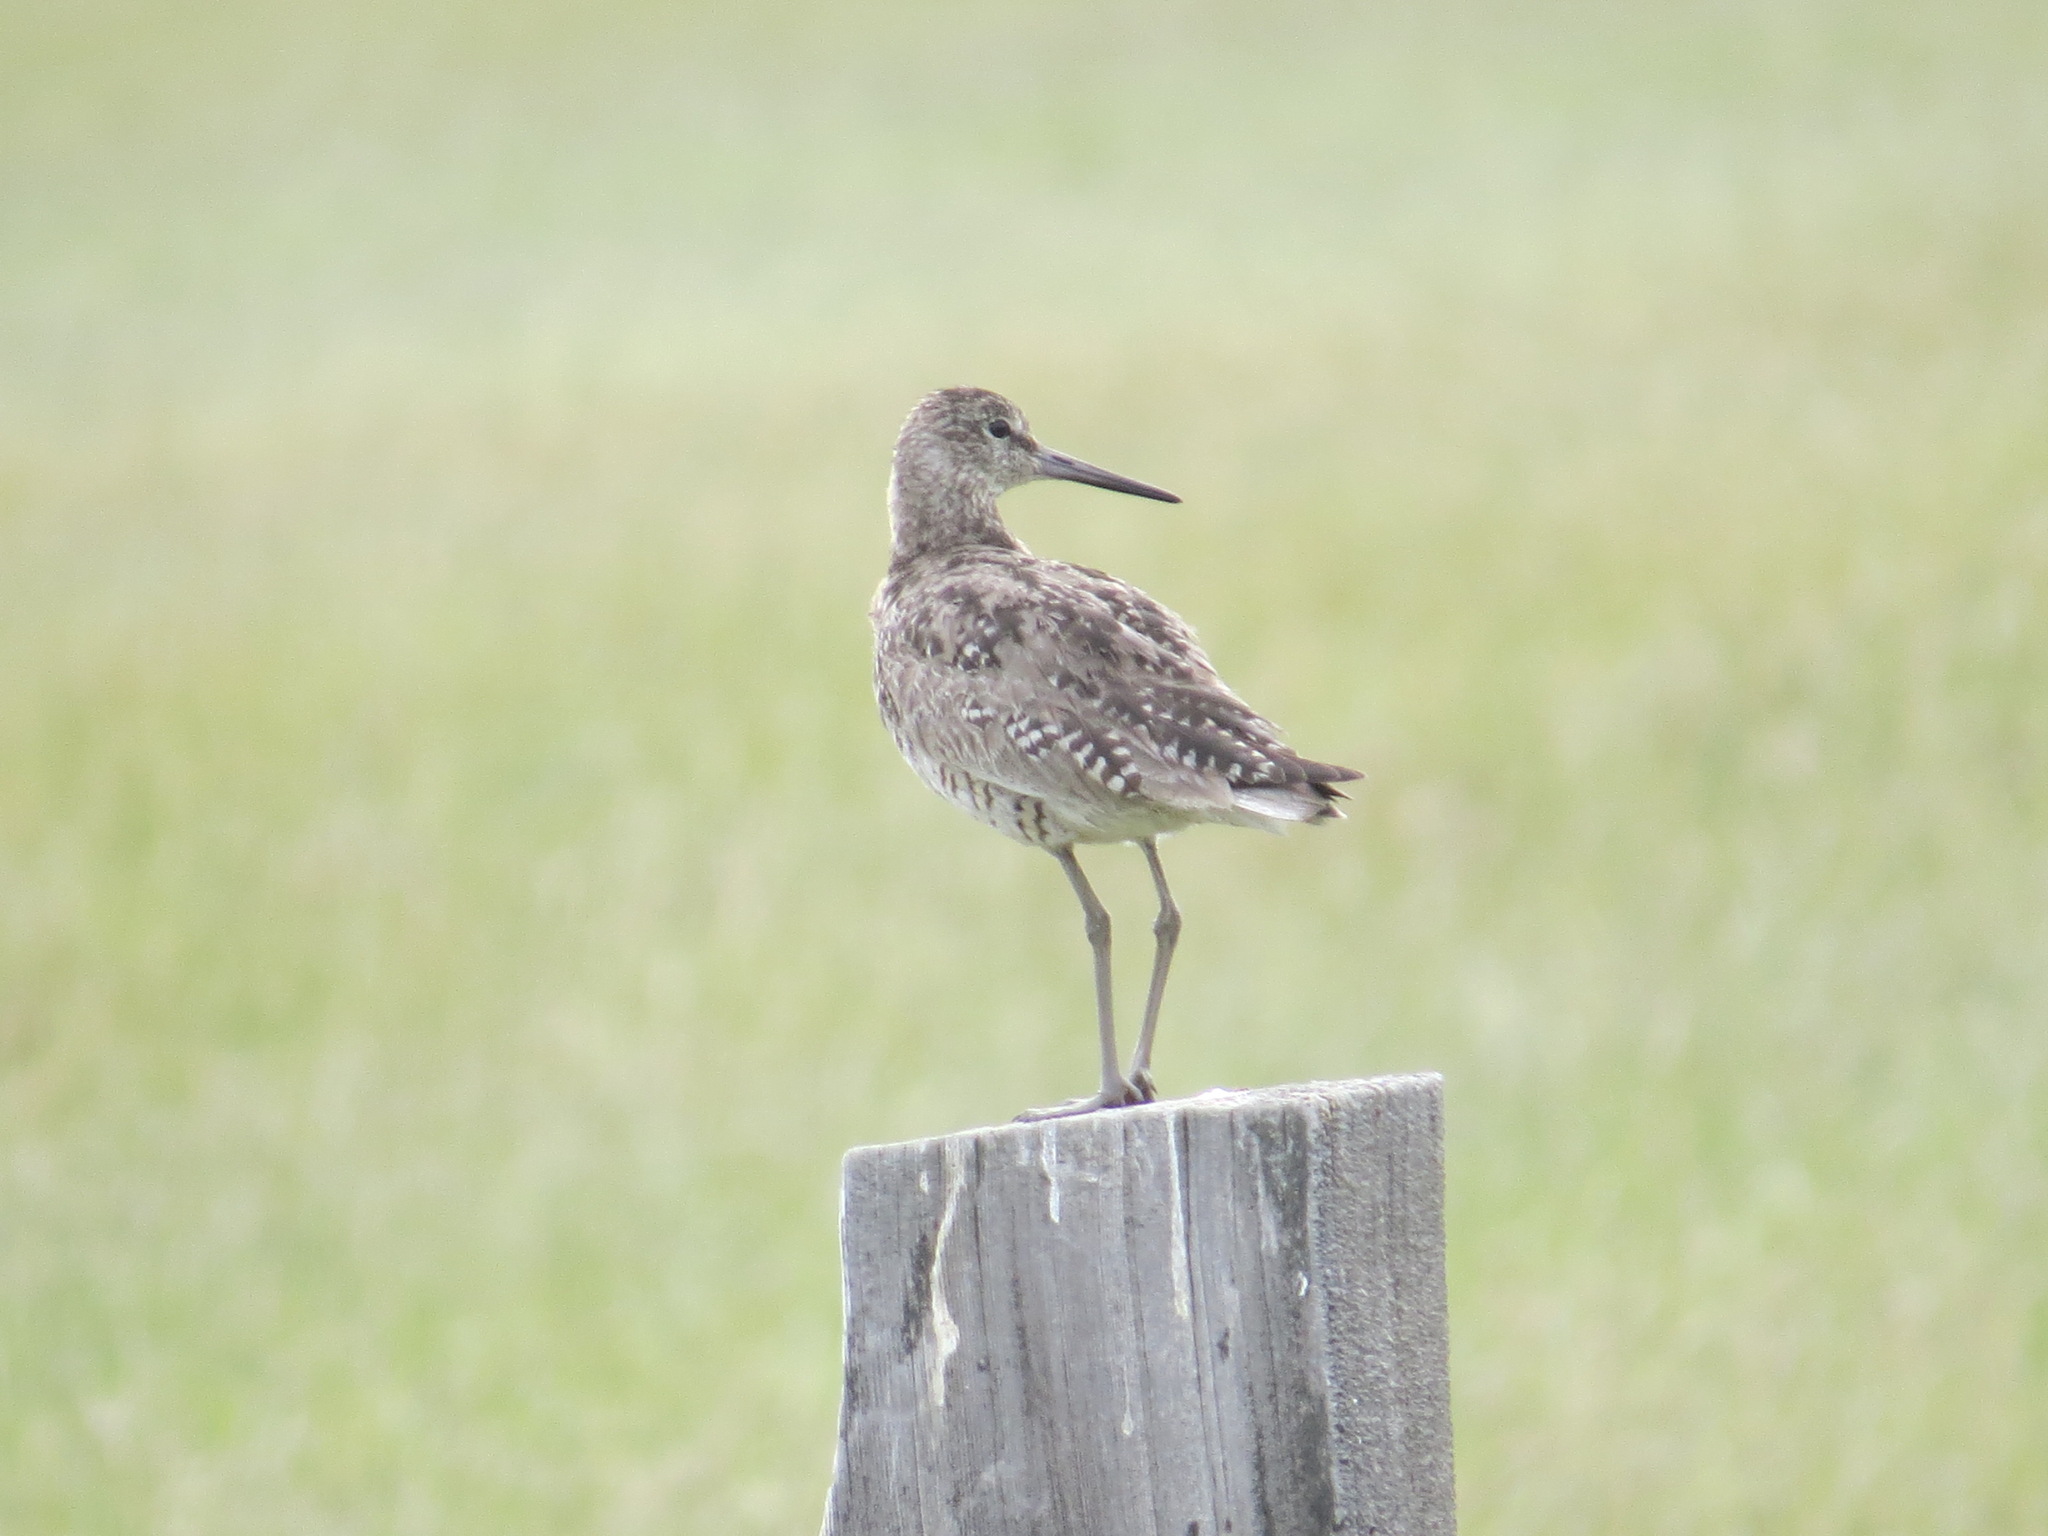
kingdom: Animalia
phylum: Chordata
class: Aves
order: Charadriiformes
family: Scolopacidae
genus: Tringa
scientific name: Tringa semipalmata
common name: Willet
